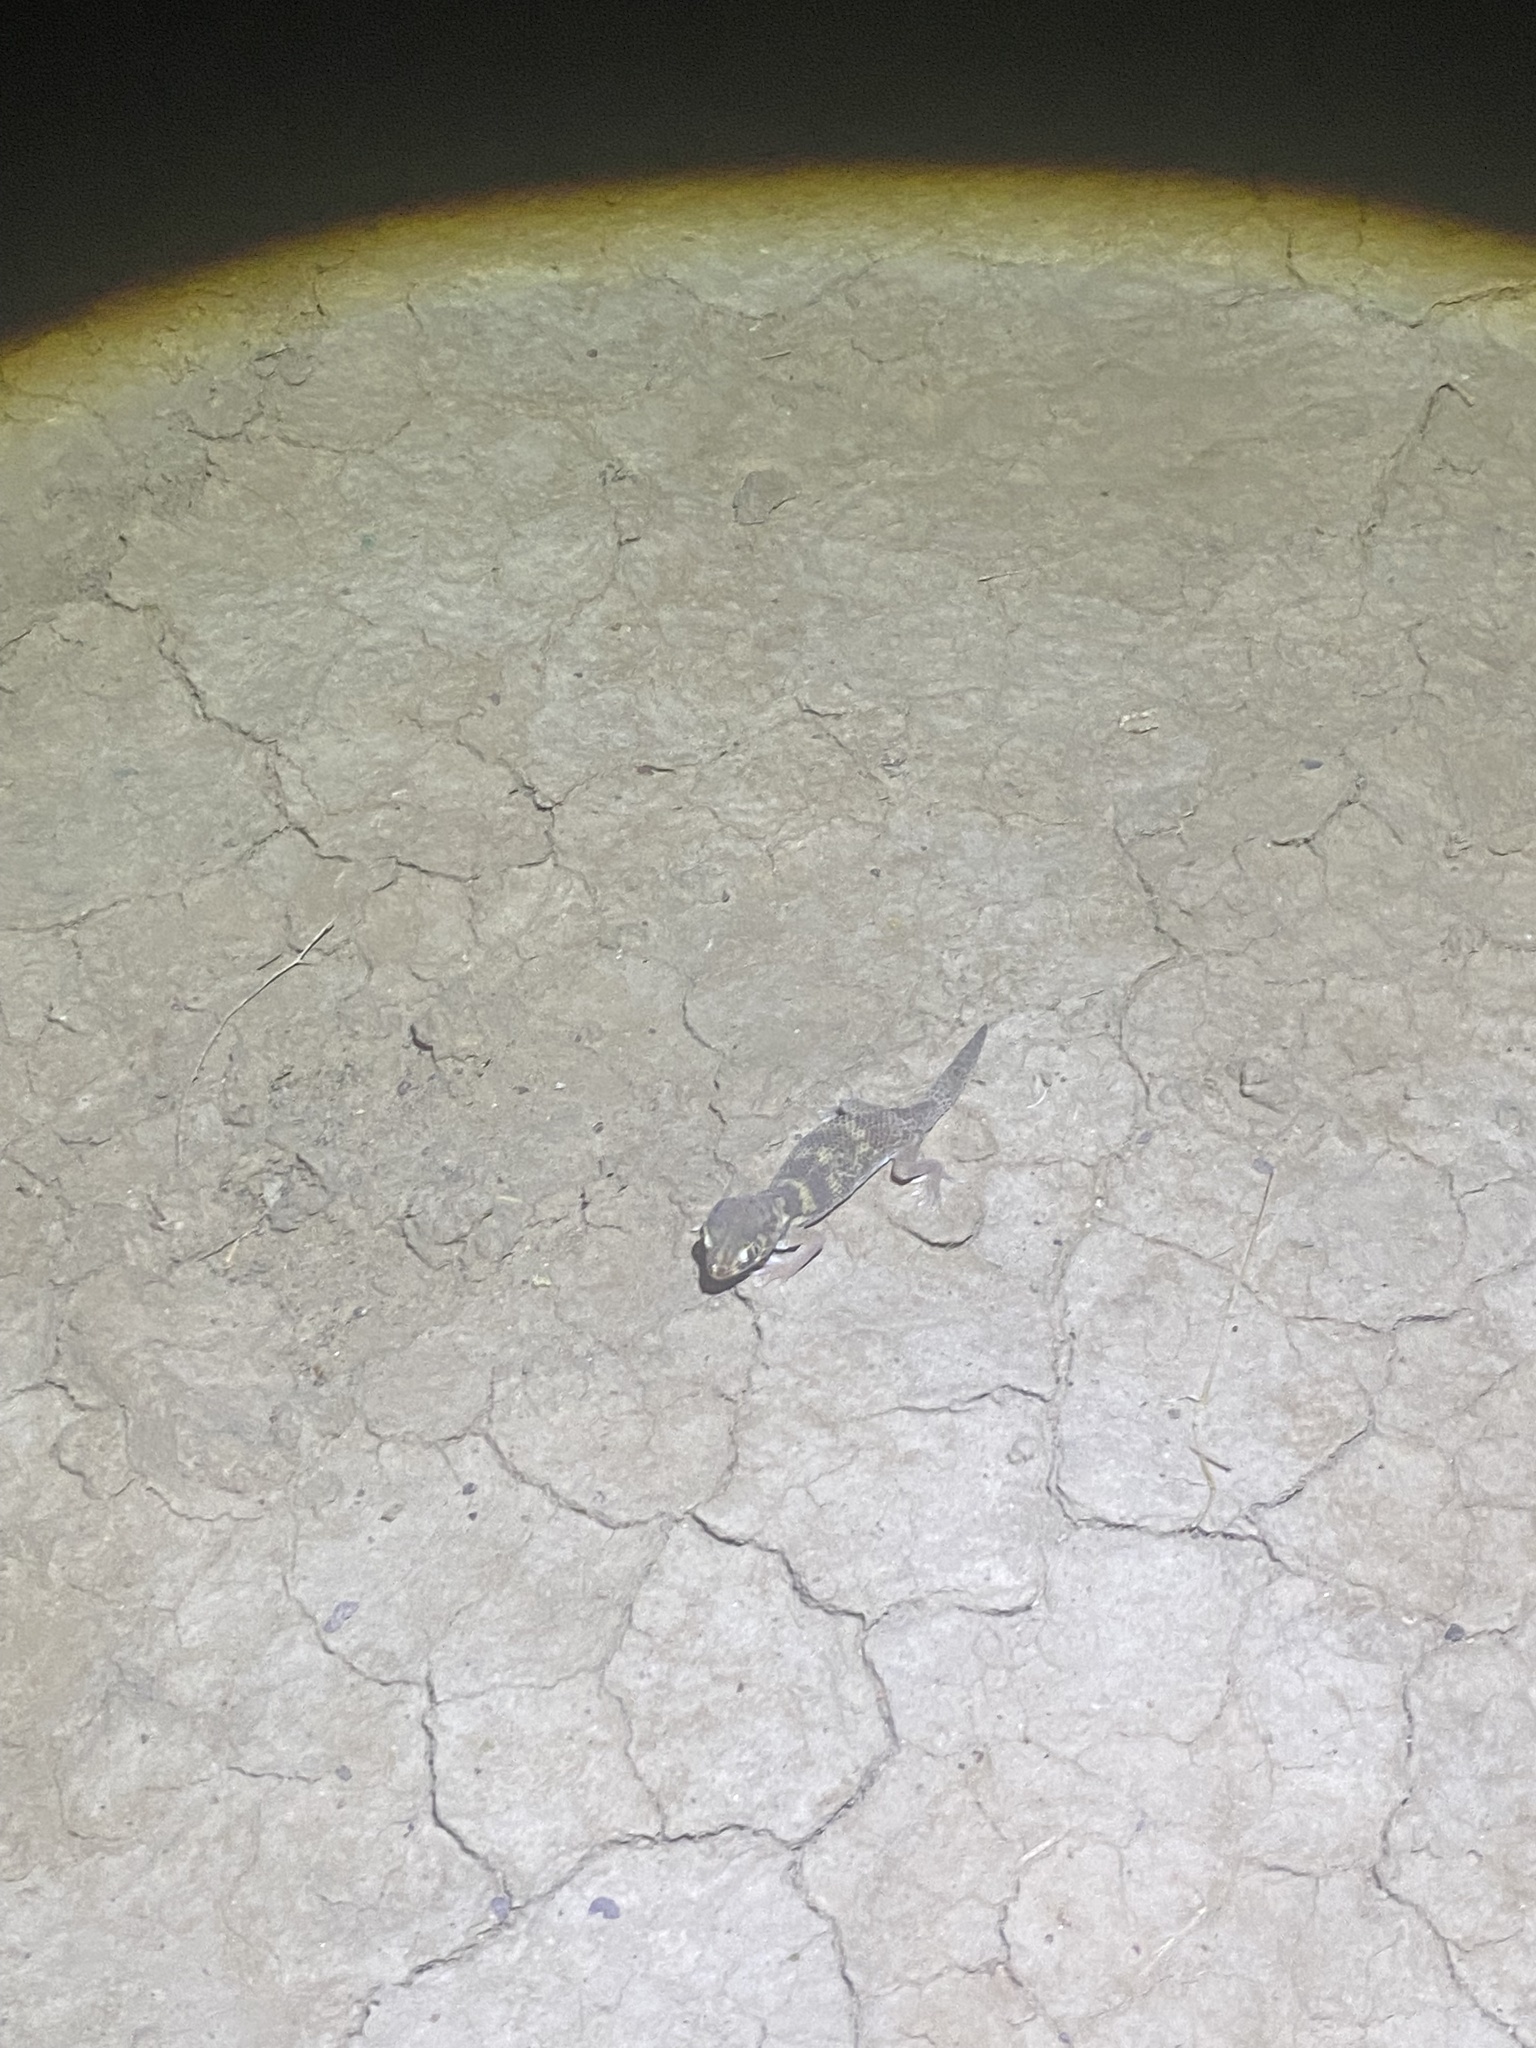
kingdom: Animalia
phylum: Chordata
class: Squamata
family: Sphaerodactylidae
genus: Teratoscincus
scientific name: Teratoscincus bedriagai
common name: Bedriaga's plate-tailed gecko
